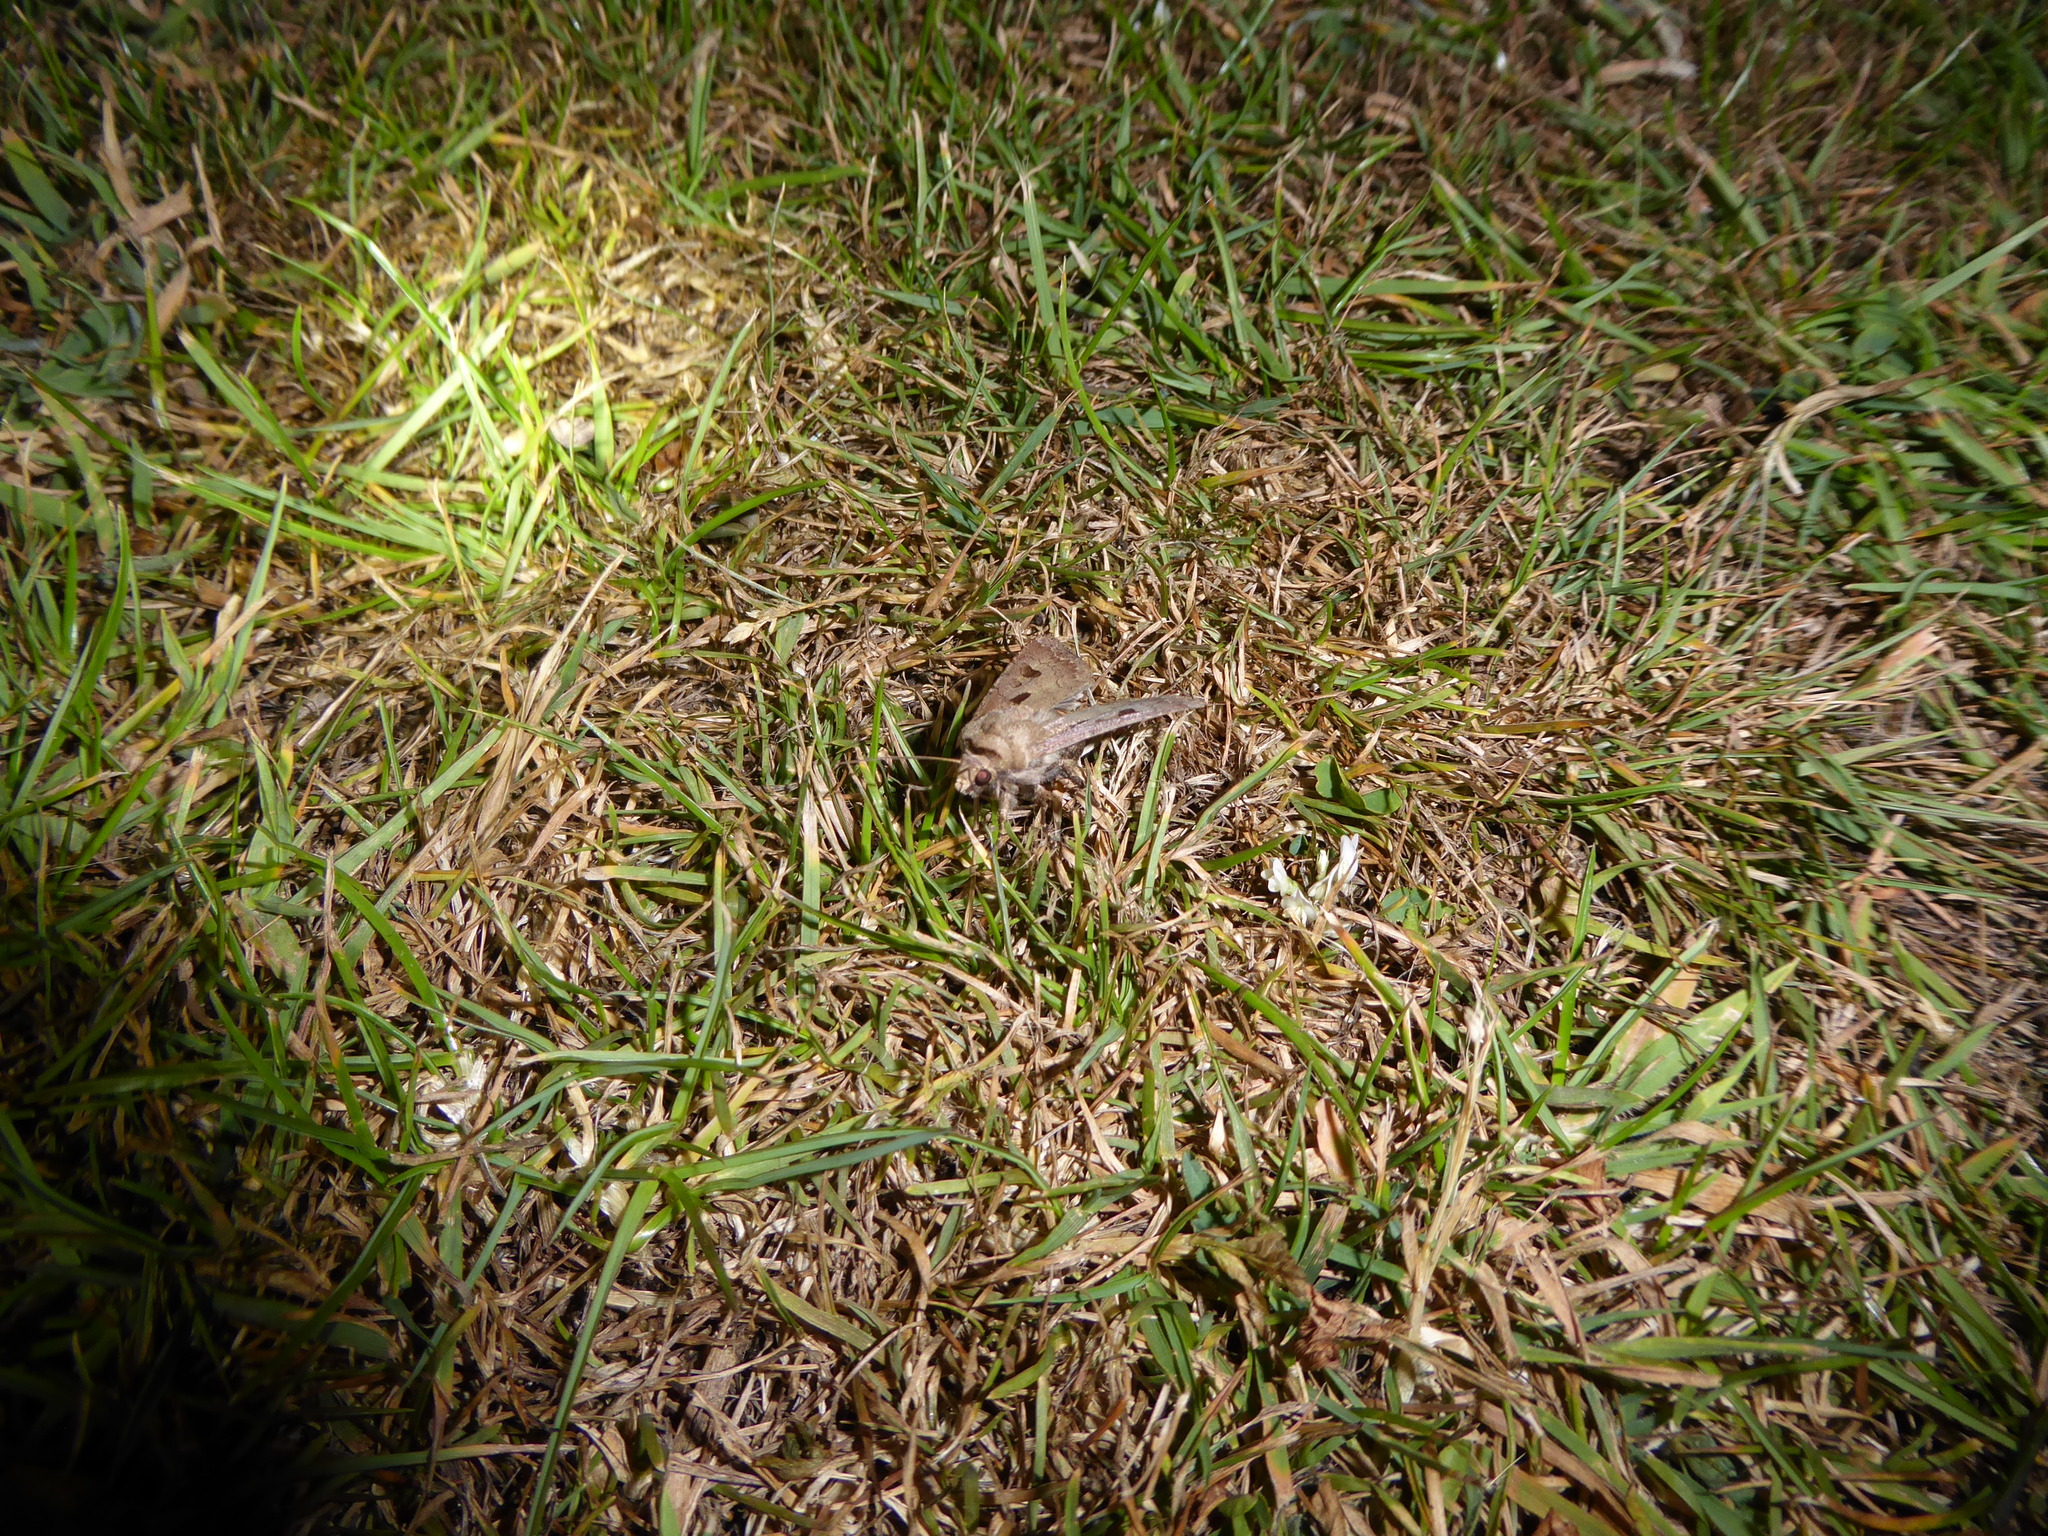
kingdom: Animalia
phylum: Arthropoda
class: Insecta
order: Lepidoptera
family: Noctuidae
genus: Agrotis
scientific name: Agrotis exclamationis
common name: Heart and dart
